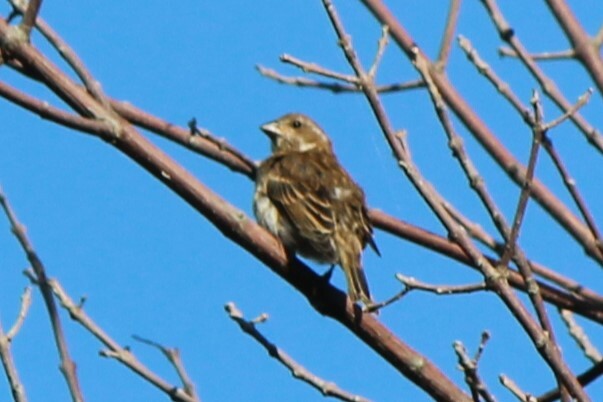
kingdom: Animalia
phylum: Chordata
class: Aves
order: Passeriformes
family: Fringillidae
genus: Haemorhous
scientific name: Haemorhous purpureus
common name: Purple finch
